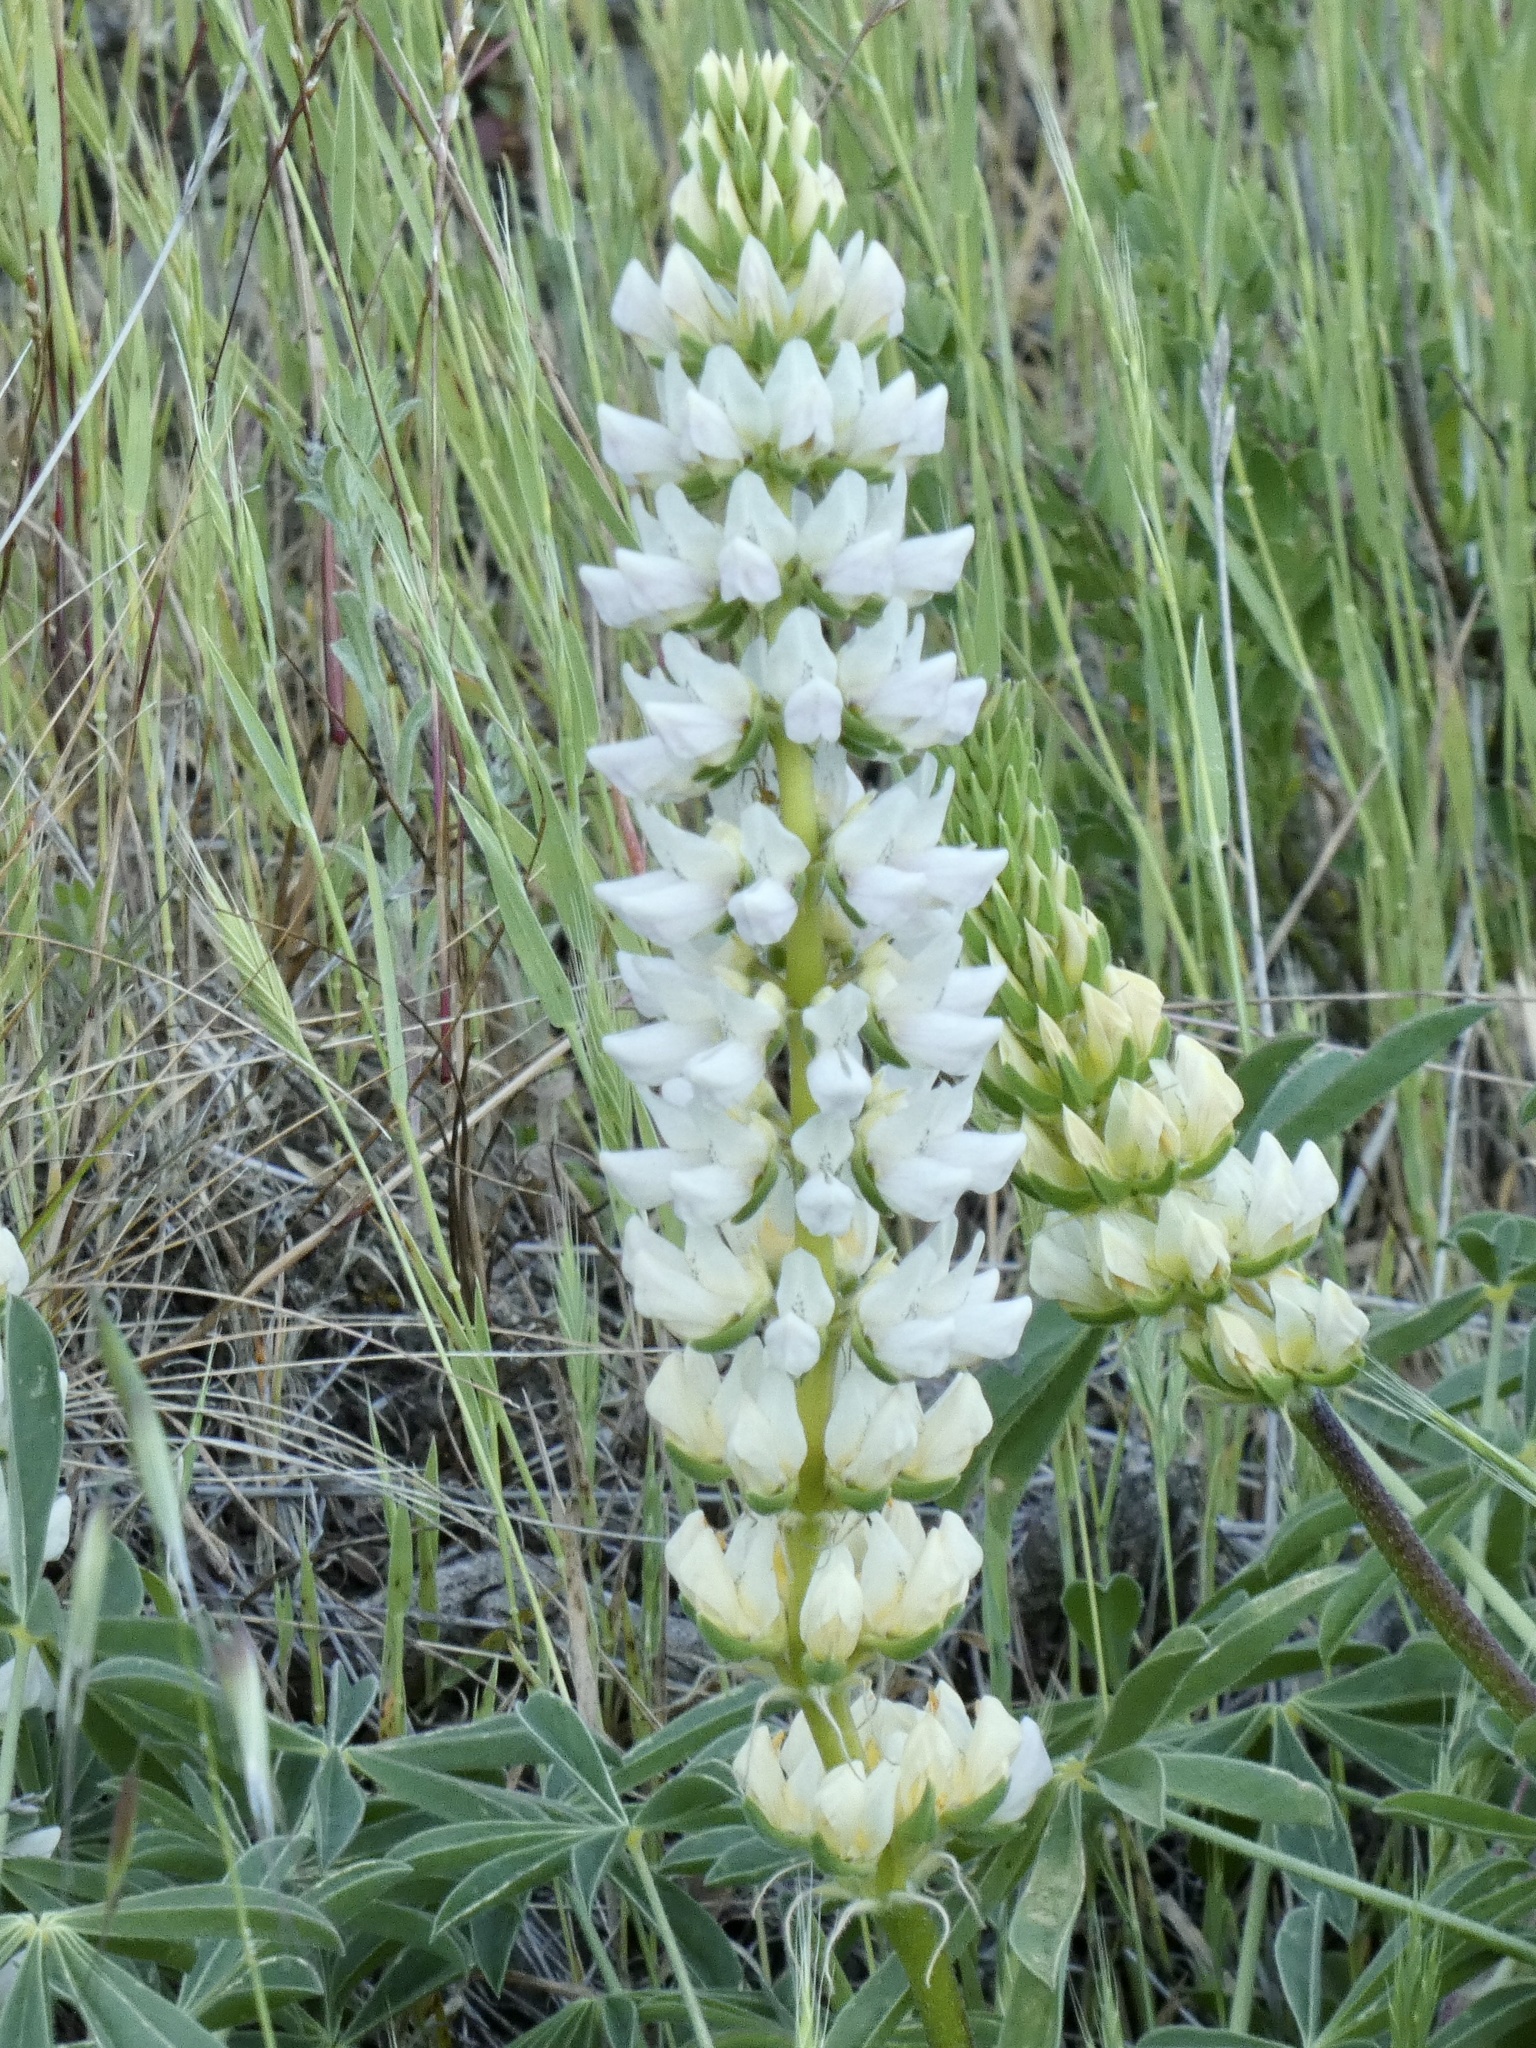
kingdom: Plantae
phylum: Tracheophyta
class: Magnoliopsida
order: Fabales
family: Fabaceae
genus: Lupinus
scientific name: Lupinus microcarpus
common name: Chick lupine
